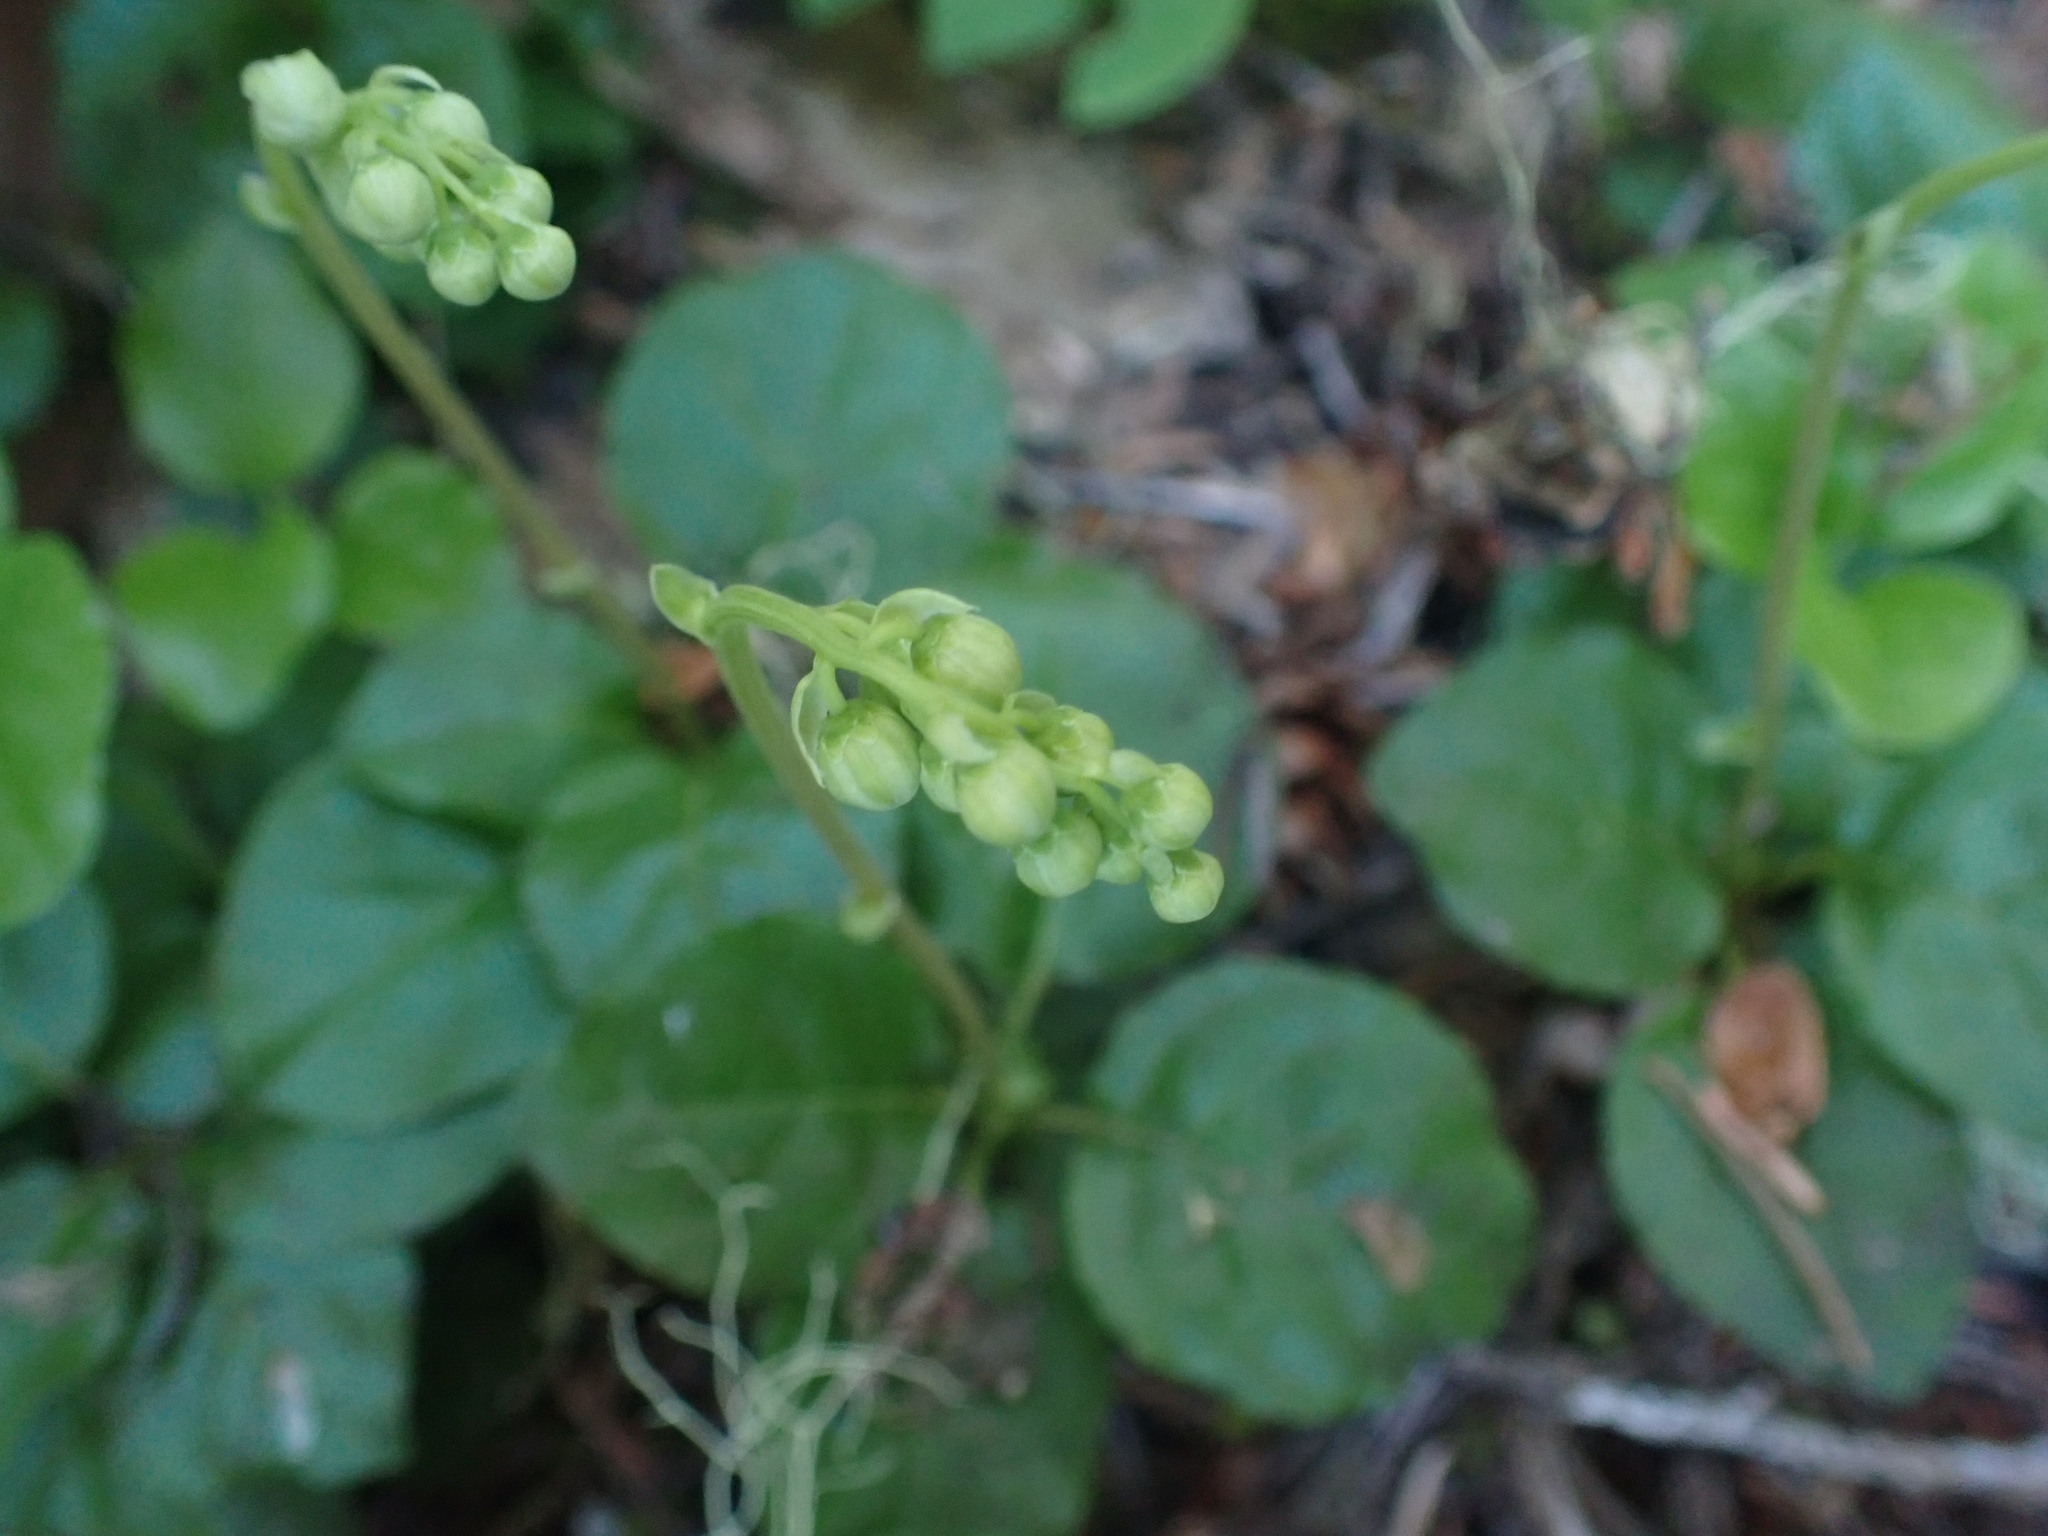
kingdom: Plantae
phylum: Tracheophyta
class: Magnoliopsida
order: Ericales
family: Ericaceae
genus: Orthilia
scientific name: Orthilia secunda
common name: One-sided orthilia
